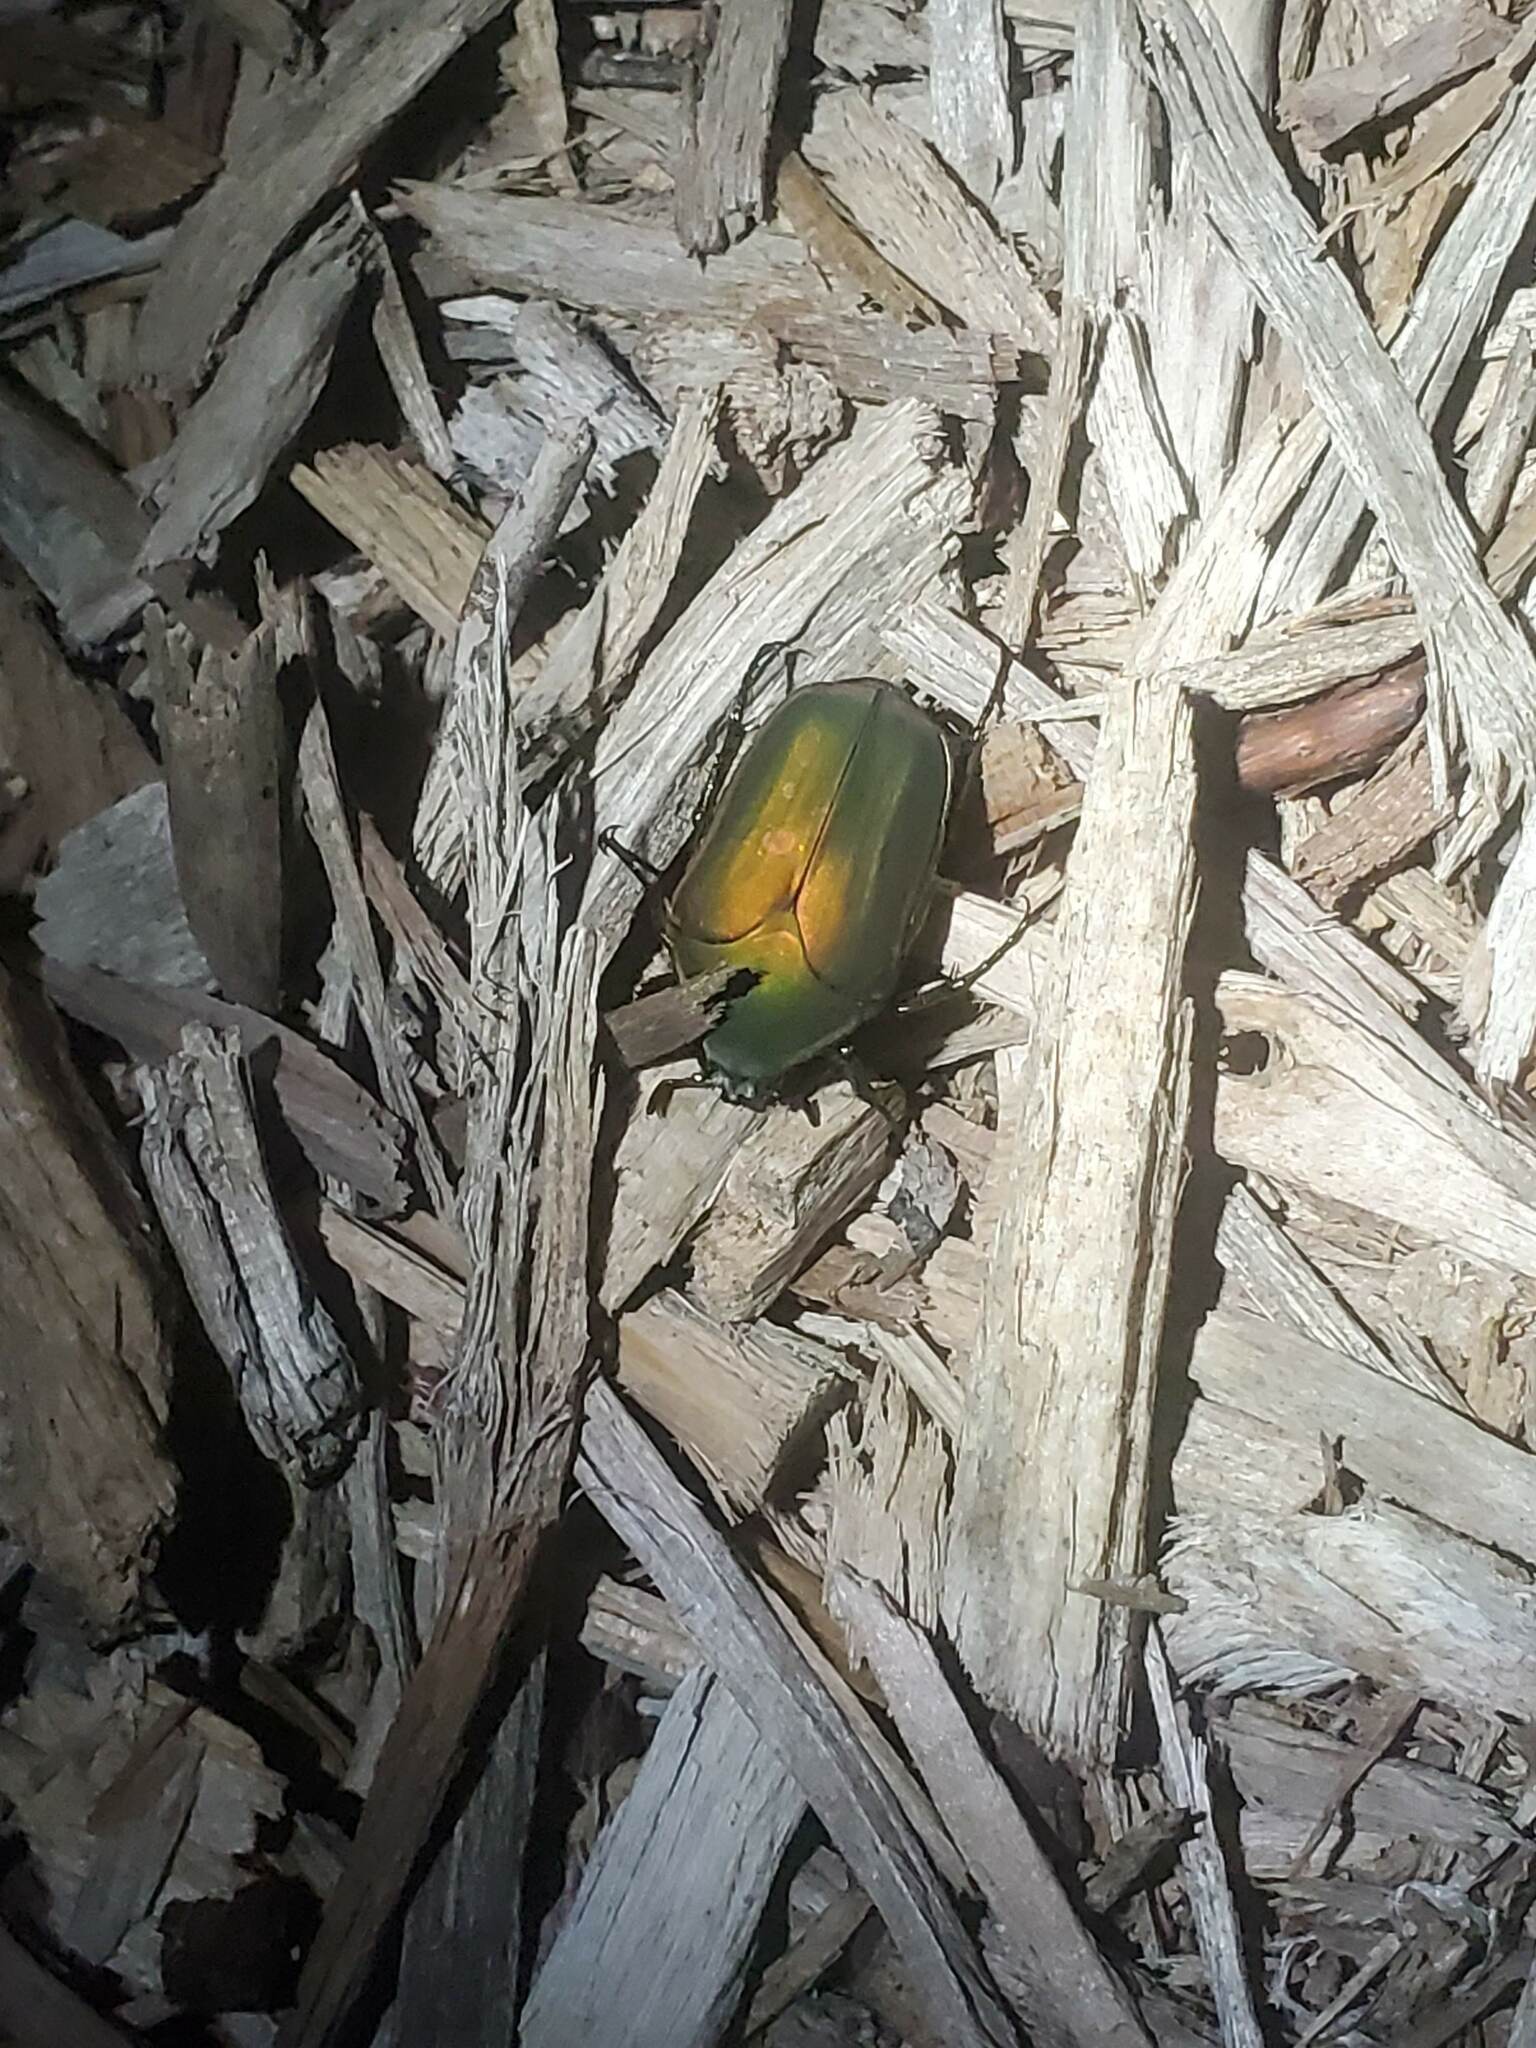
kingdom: Animalia
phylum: Arthropoda
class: Insecta
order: Coleoptera
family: Scarabaeidae
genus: Cotinis
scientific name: Cotinis nitida
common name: Common green june beetle
